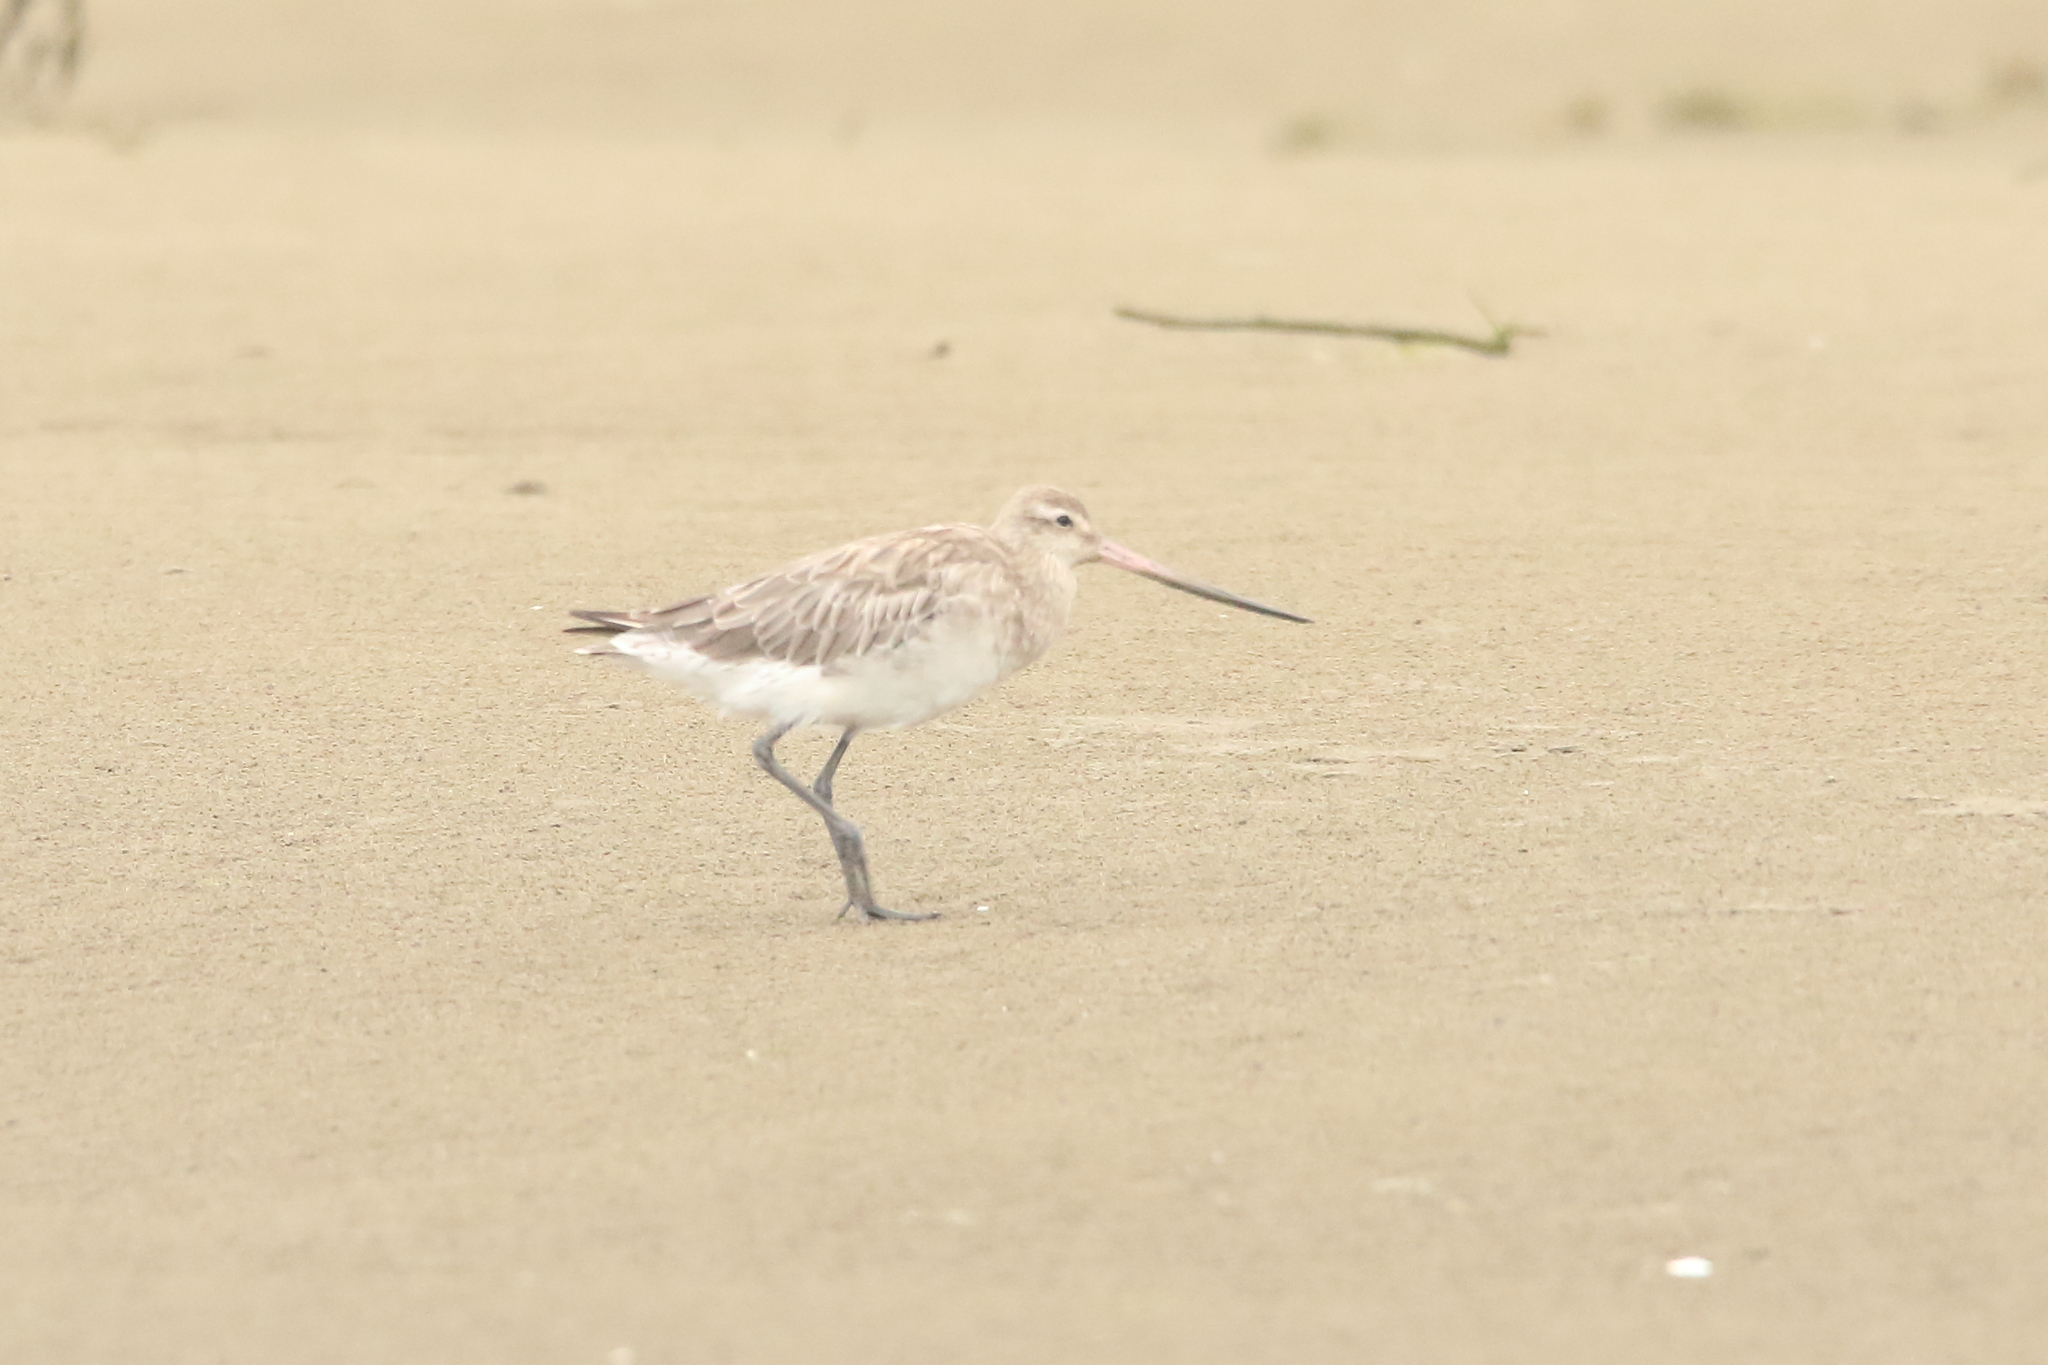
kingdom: Animalia
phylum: Chordata
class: Aves
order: Charadriiformes
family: Scolopacidae
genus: Limosa
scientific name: Limosa lapponica
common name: Bar-tailed godwit
